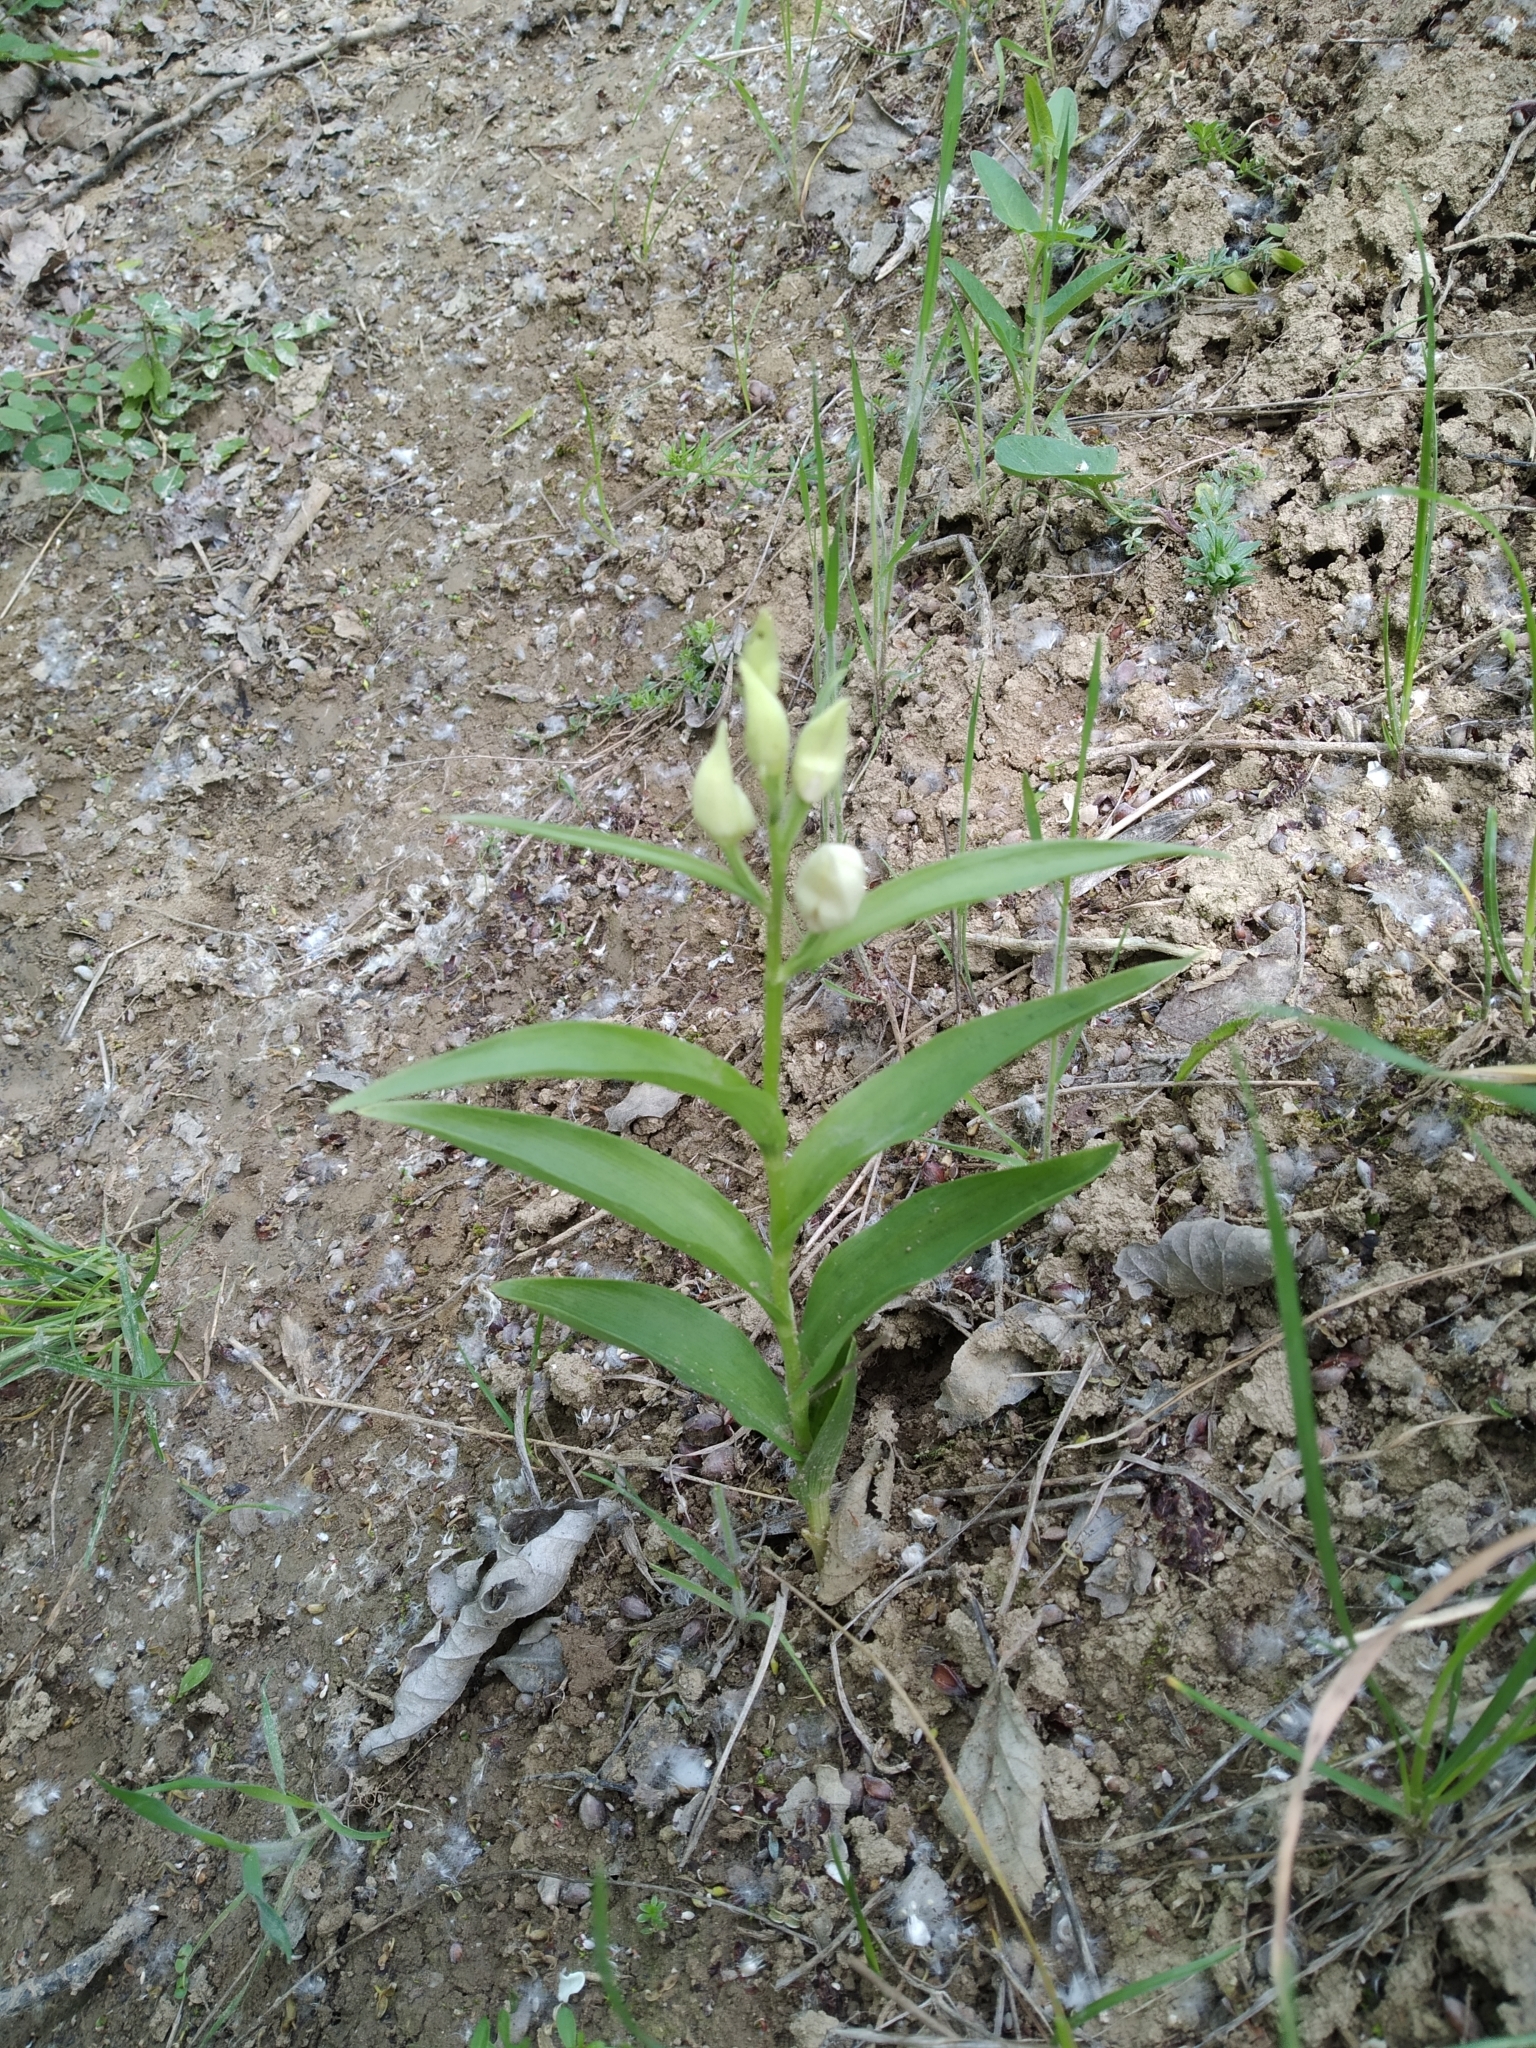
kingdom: Plantae
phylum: Tracheophyta
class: Liliopsida
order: Asparagales
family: Orchidaceae
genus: Cephalanthera
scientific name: Cephalanthera damasonium
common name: White helleborine
